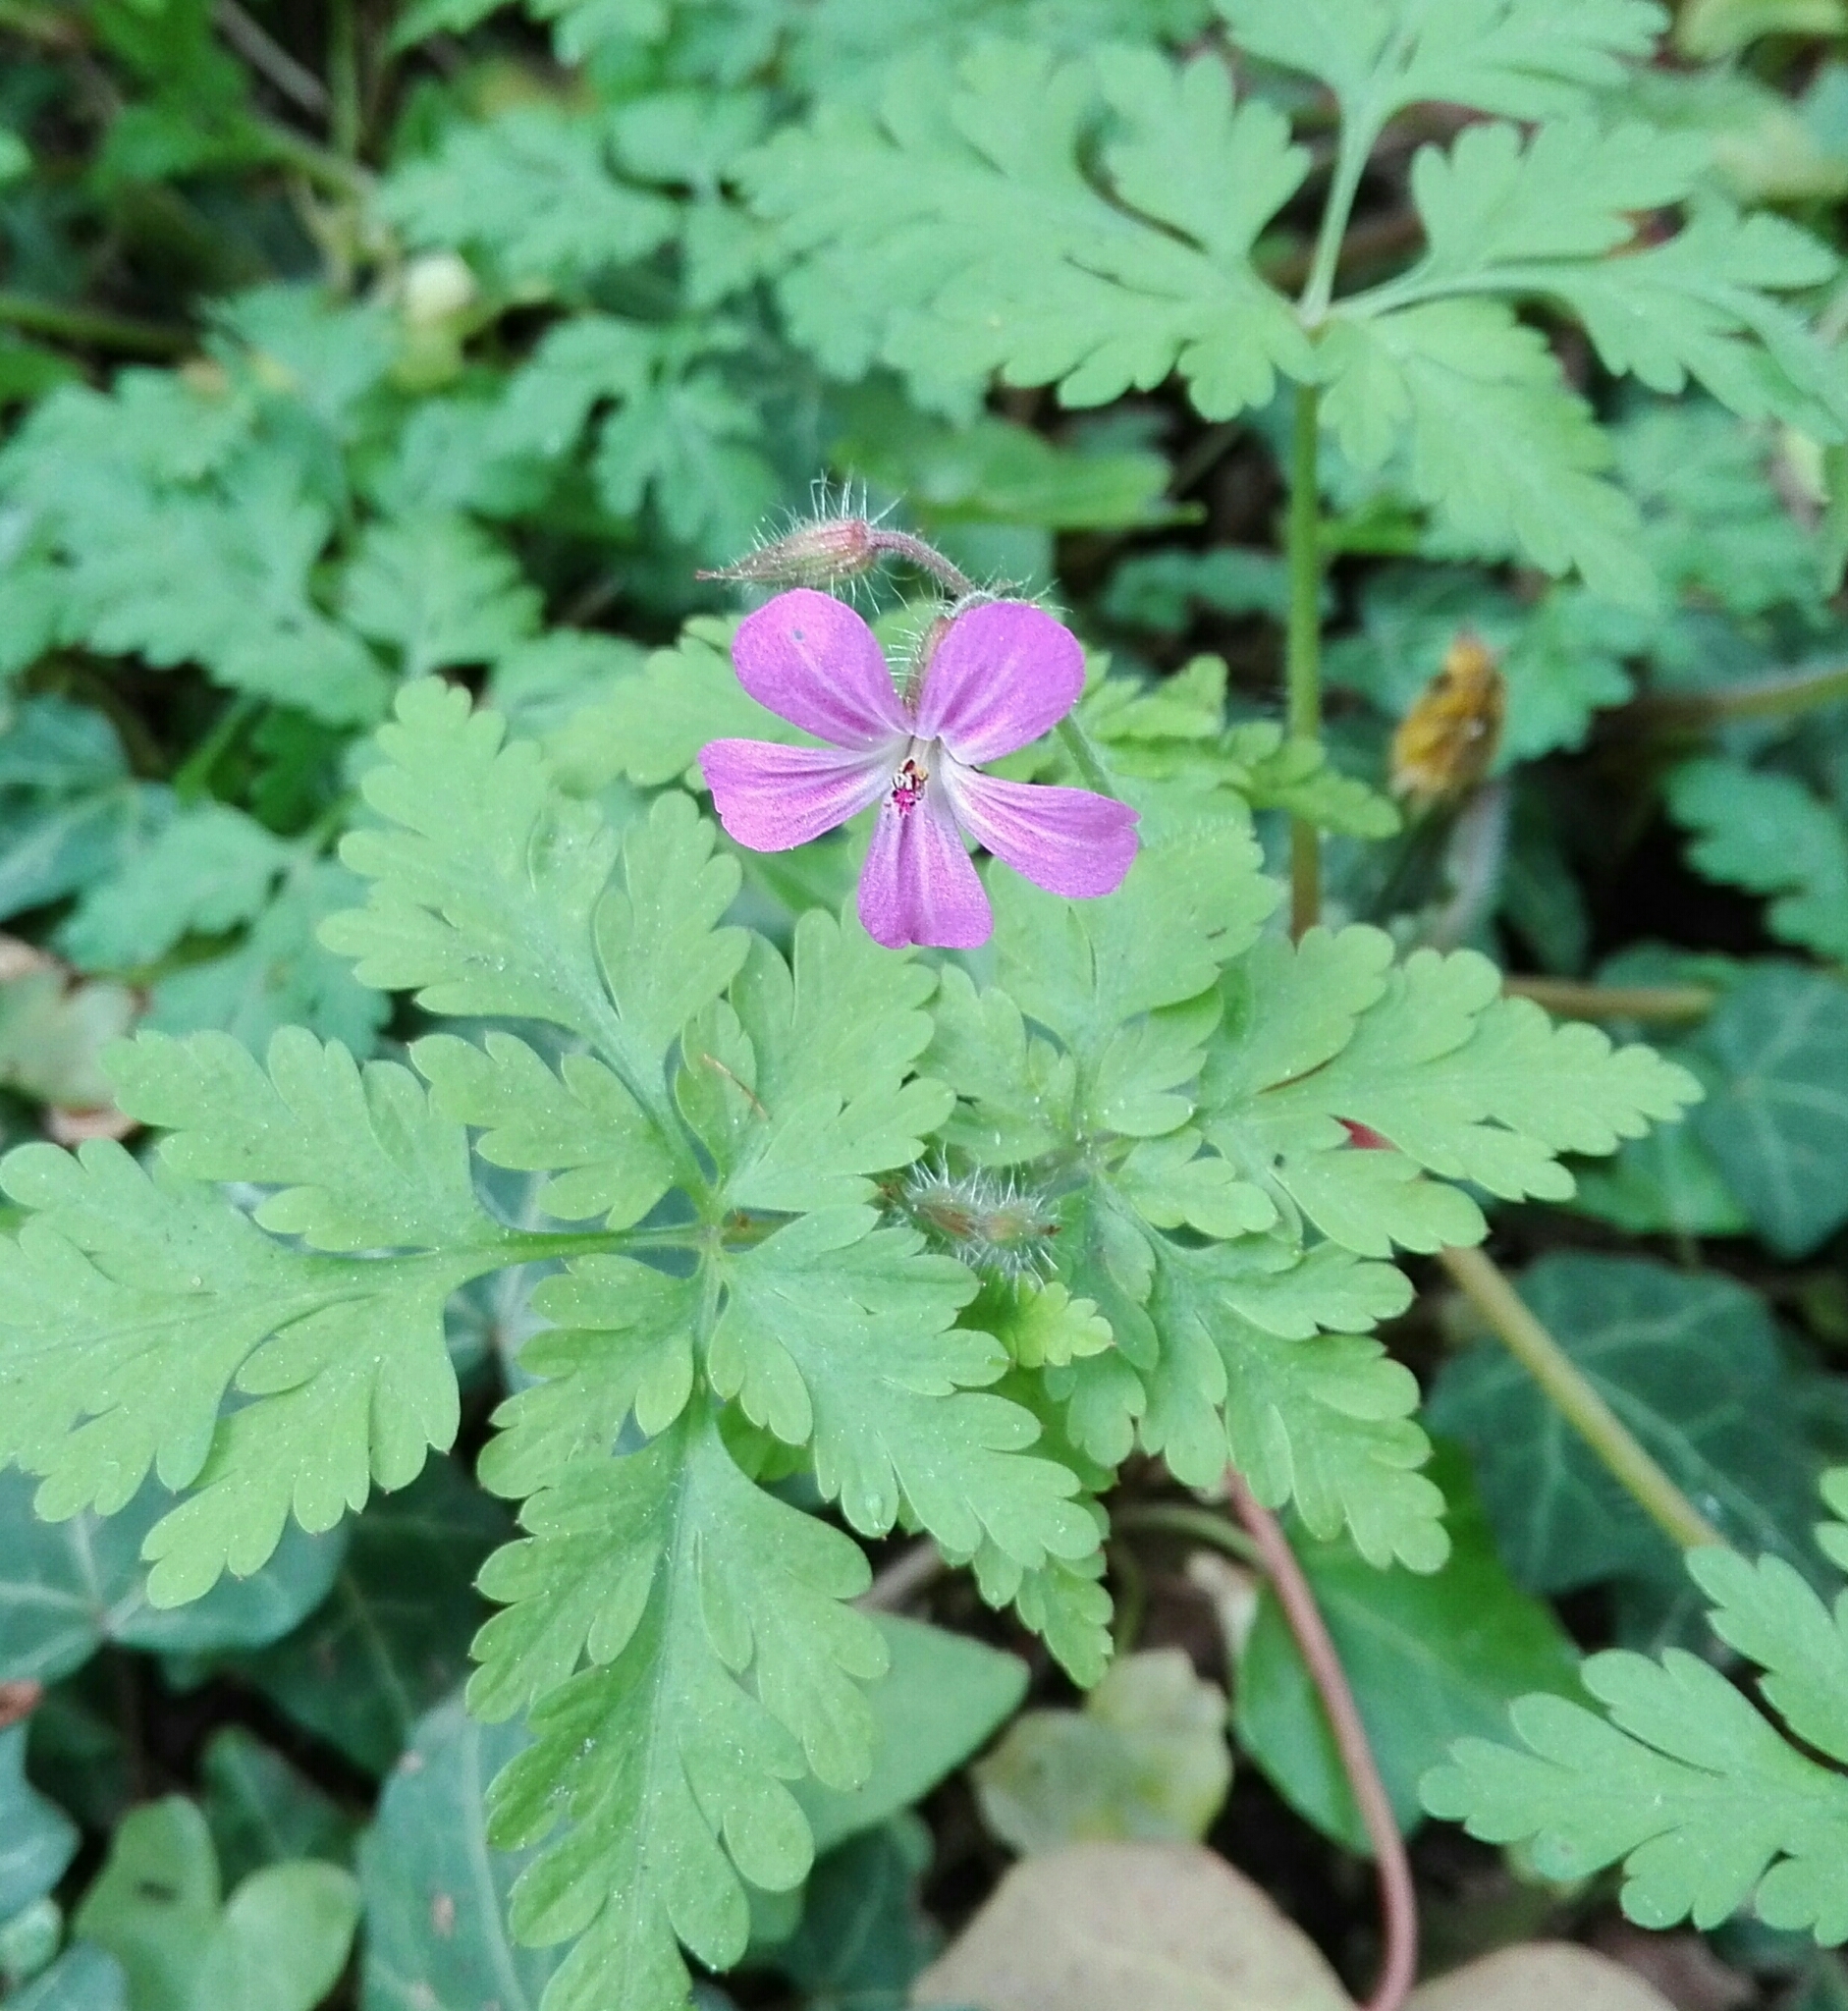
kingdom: Plantae
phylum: Tracheophyta
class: Magnoliopsida
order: Geraniales
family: Geraniaceae
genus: Geranium
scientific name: Geranium robertianum
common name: Herb-robert
